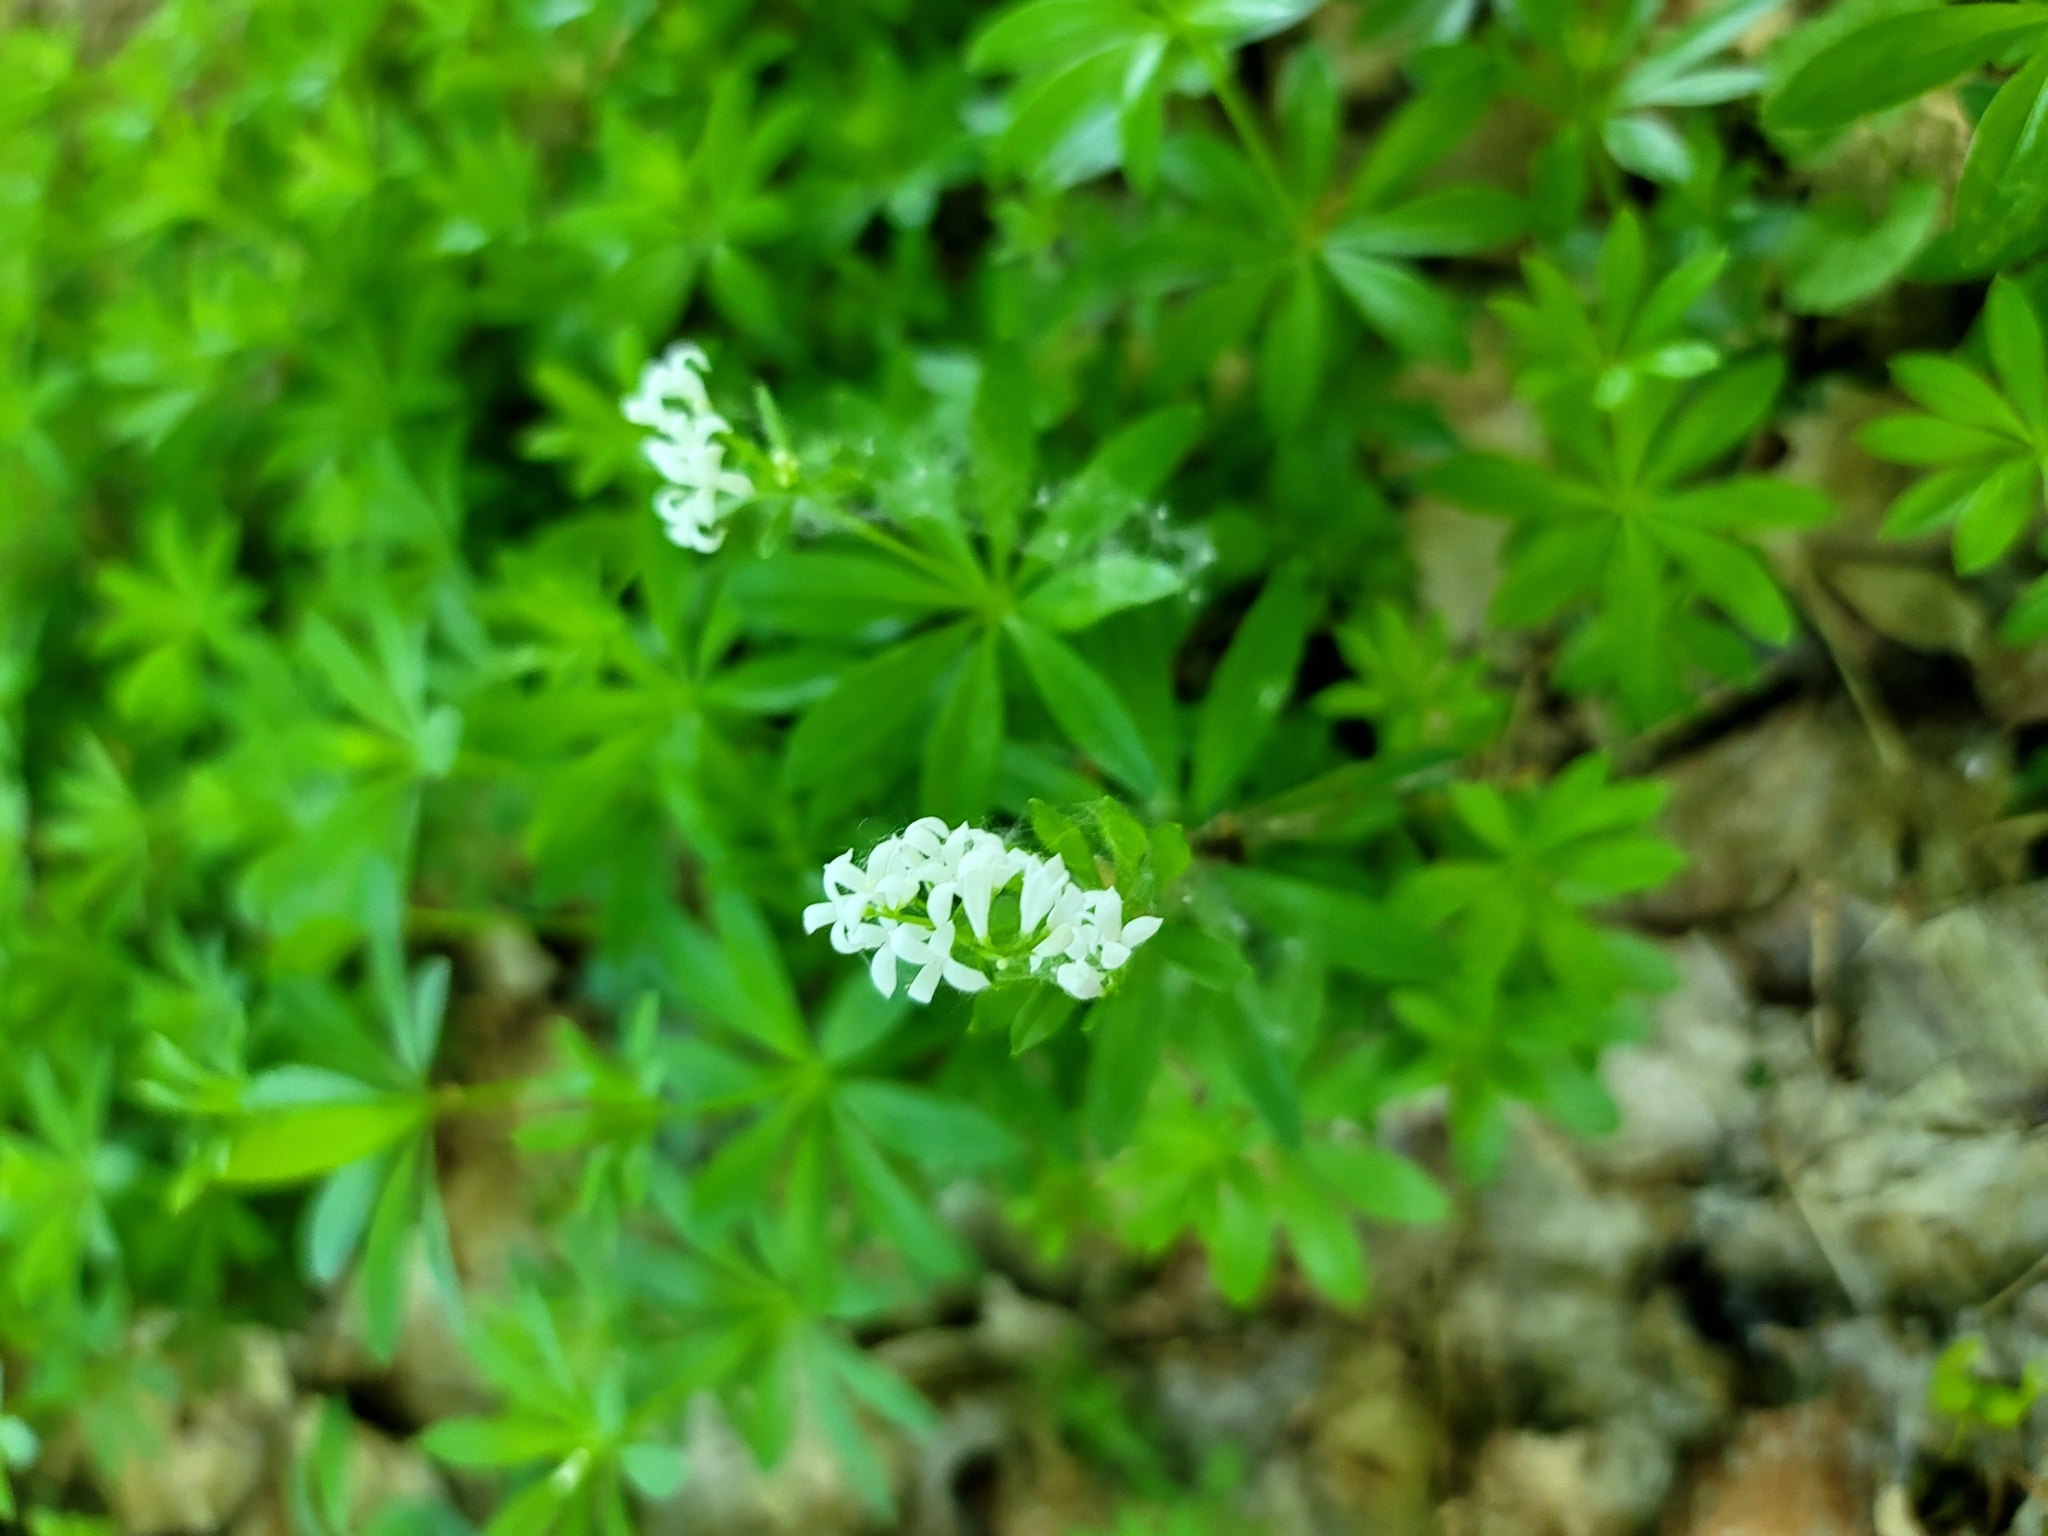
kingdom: Plantae
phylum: Tracheophyta
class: Magnoliopsida
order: Gentianales
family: Rubiaceae
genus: Galium
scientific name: Galium odoratum
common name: Sweet woodruff
